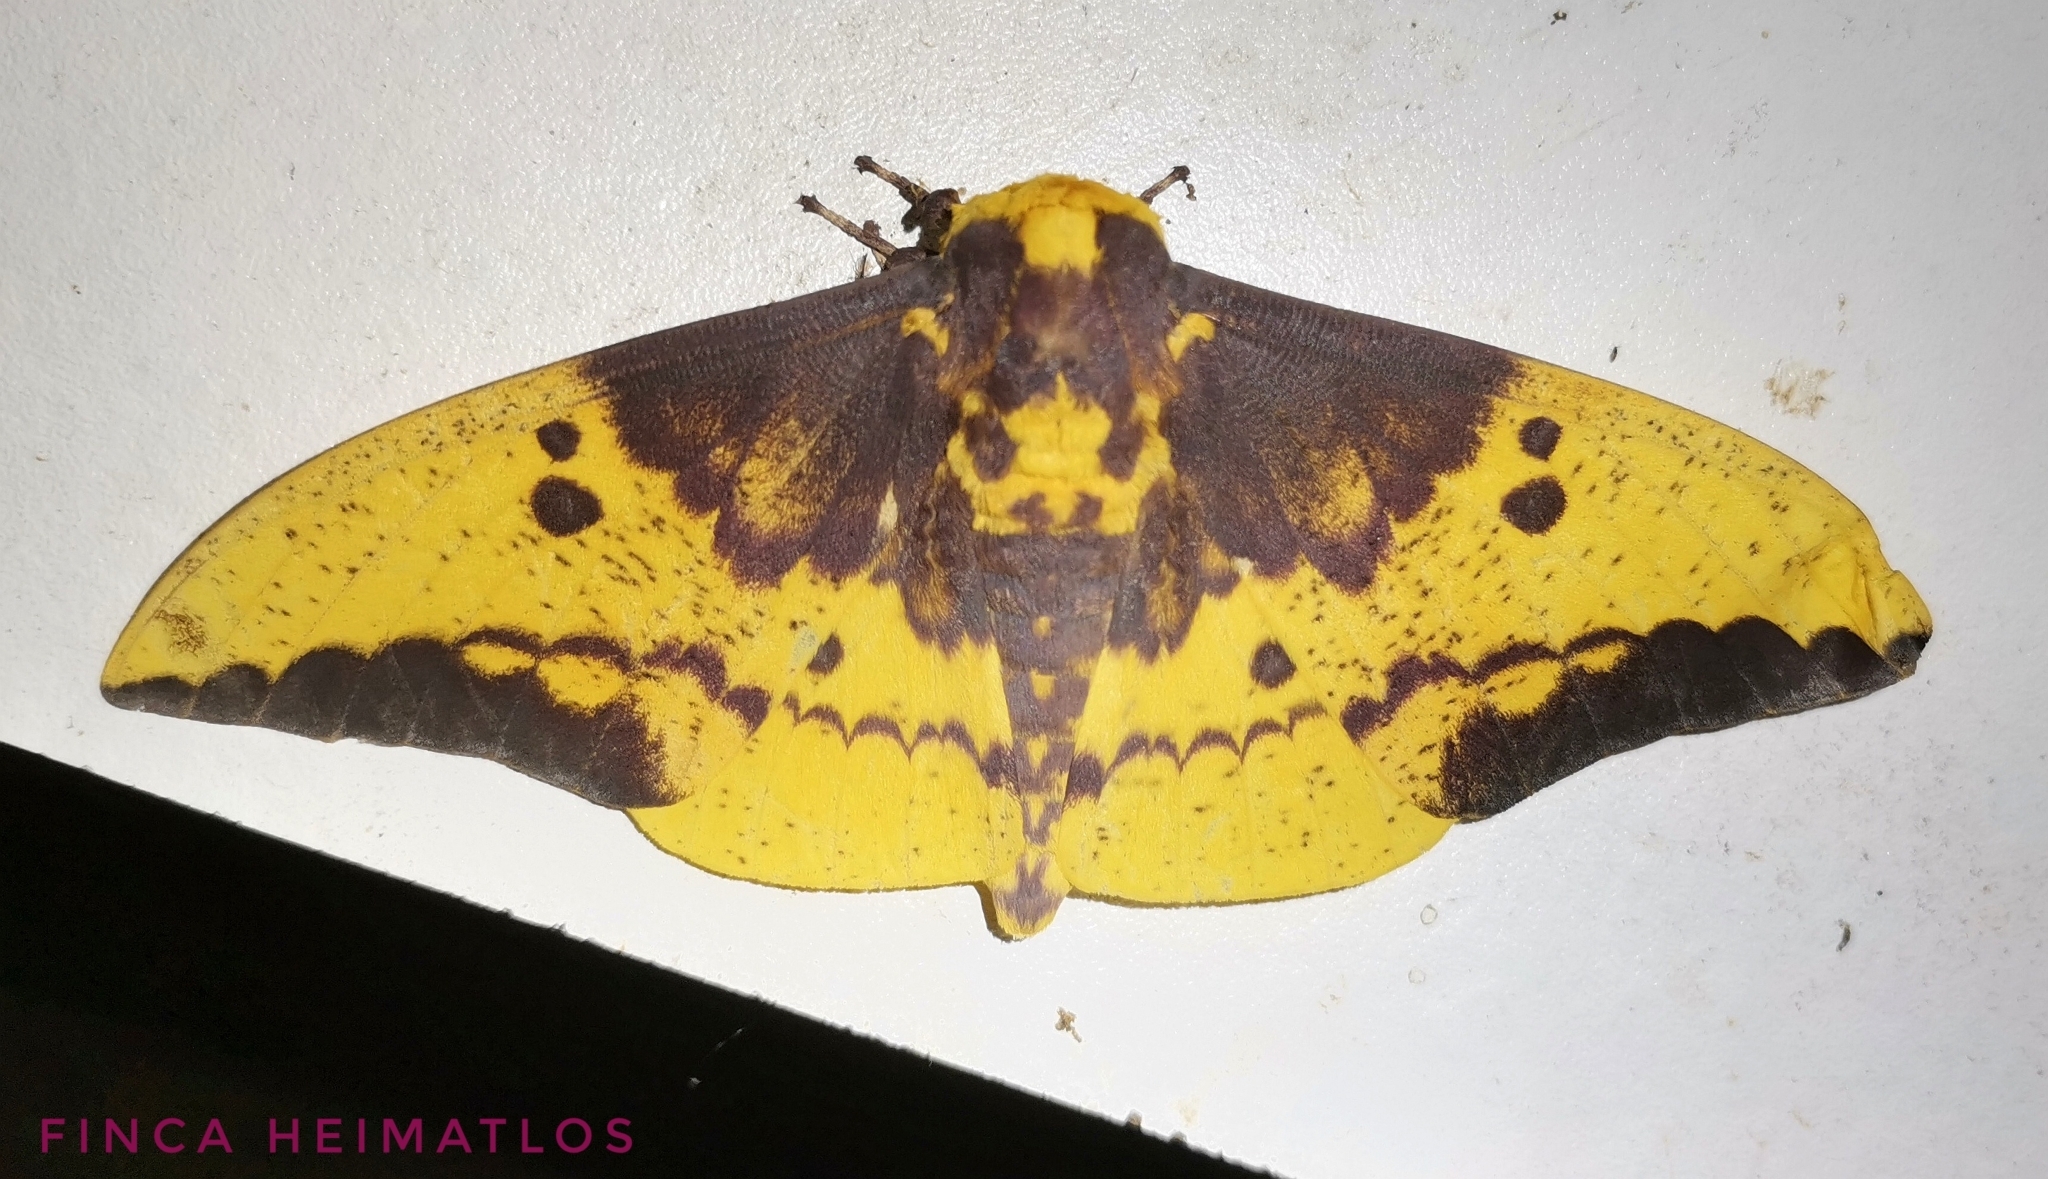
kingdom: Animalia
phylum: Arthropoda
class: Insecta
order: Lepidoptera
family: Saturniidae
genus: Eacles
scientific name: Eacles imperialis
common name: Imperial moth
